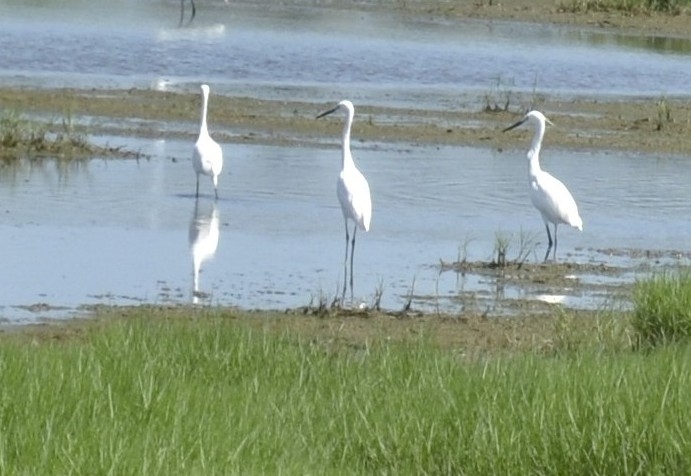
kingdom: Animalia
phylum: Chordata
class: Aves
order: Pelecaniformes
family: Ardeidae
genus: Egretta
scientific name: Egretta garzetta
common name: Little egret
